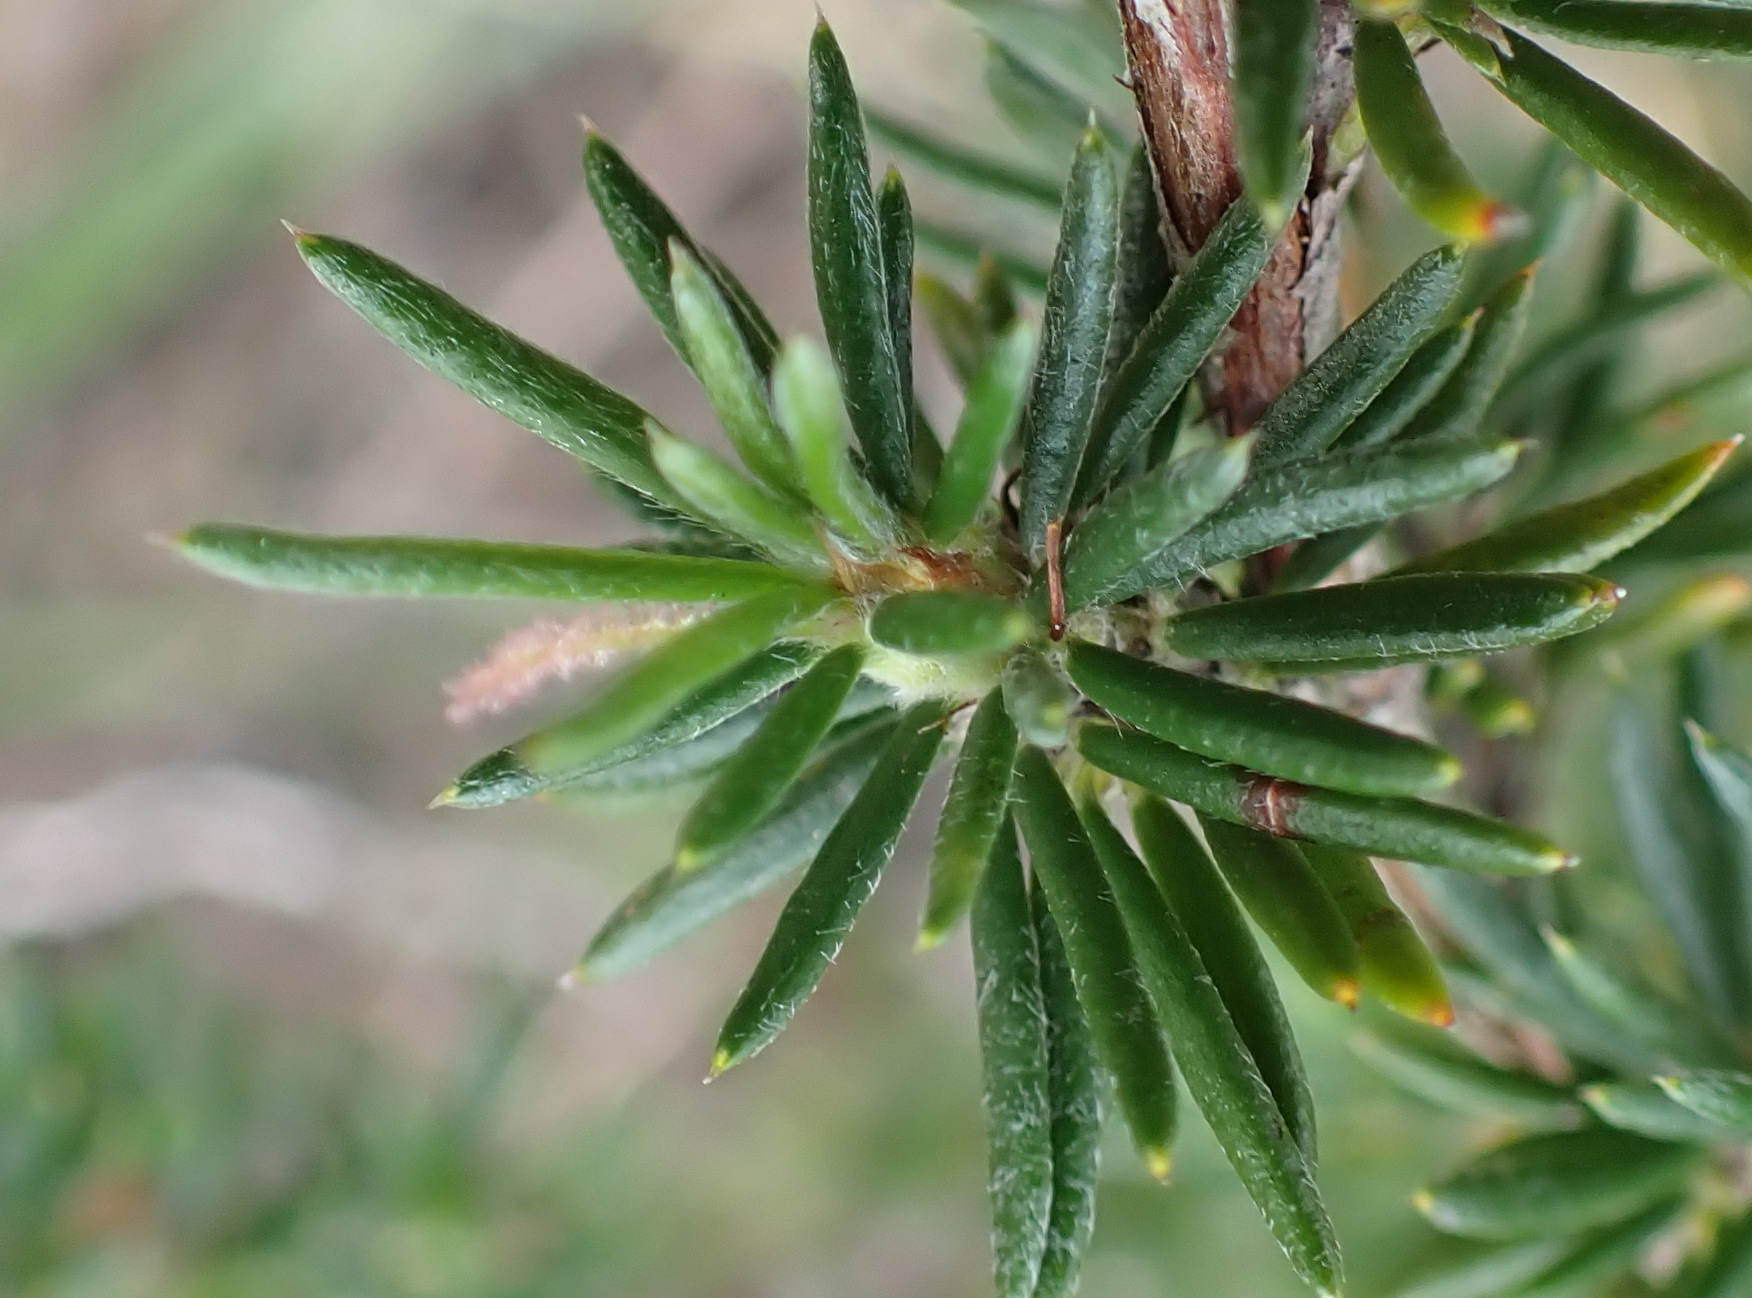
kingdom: Plantae
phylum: Tracheophyta
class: Magnoliopsida
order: Rosales
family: Rosaceae
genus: Cliffortia
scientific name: Cliffortia stricta
